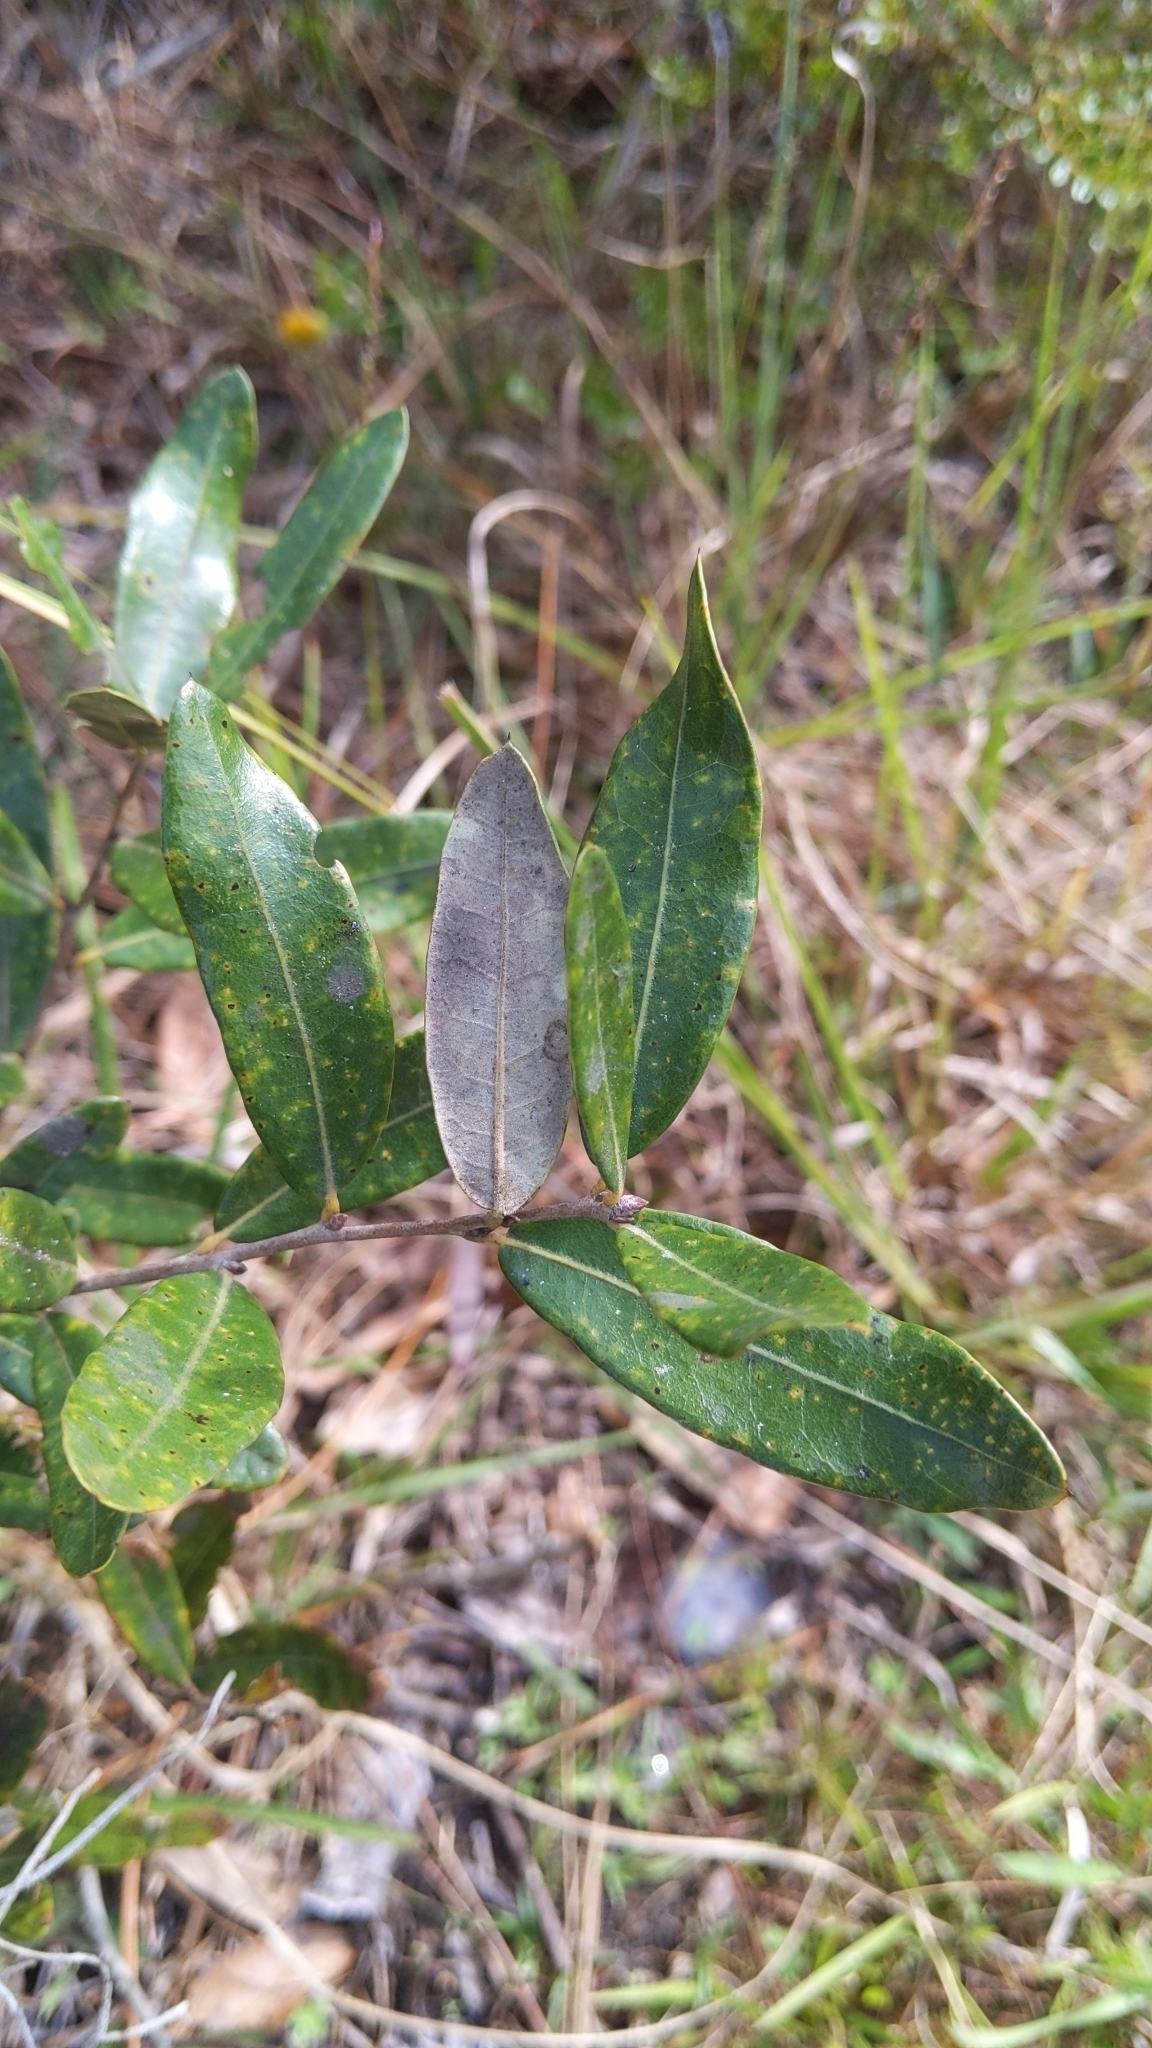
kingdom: Plantae
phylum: Tracheophyta
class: Magnoliopsida
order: Fagales
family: Fagaceae
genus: Quercus
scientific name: Quercus pumila
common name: Runner oak
